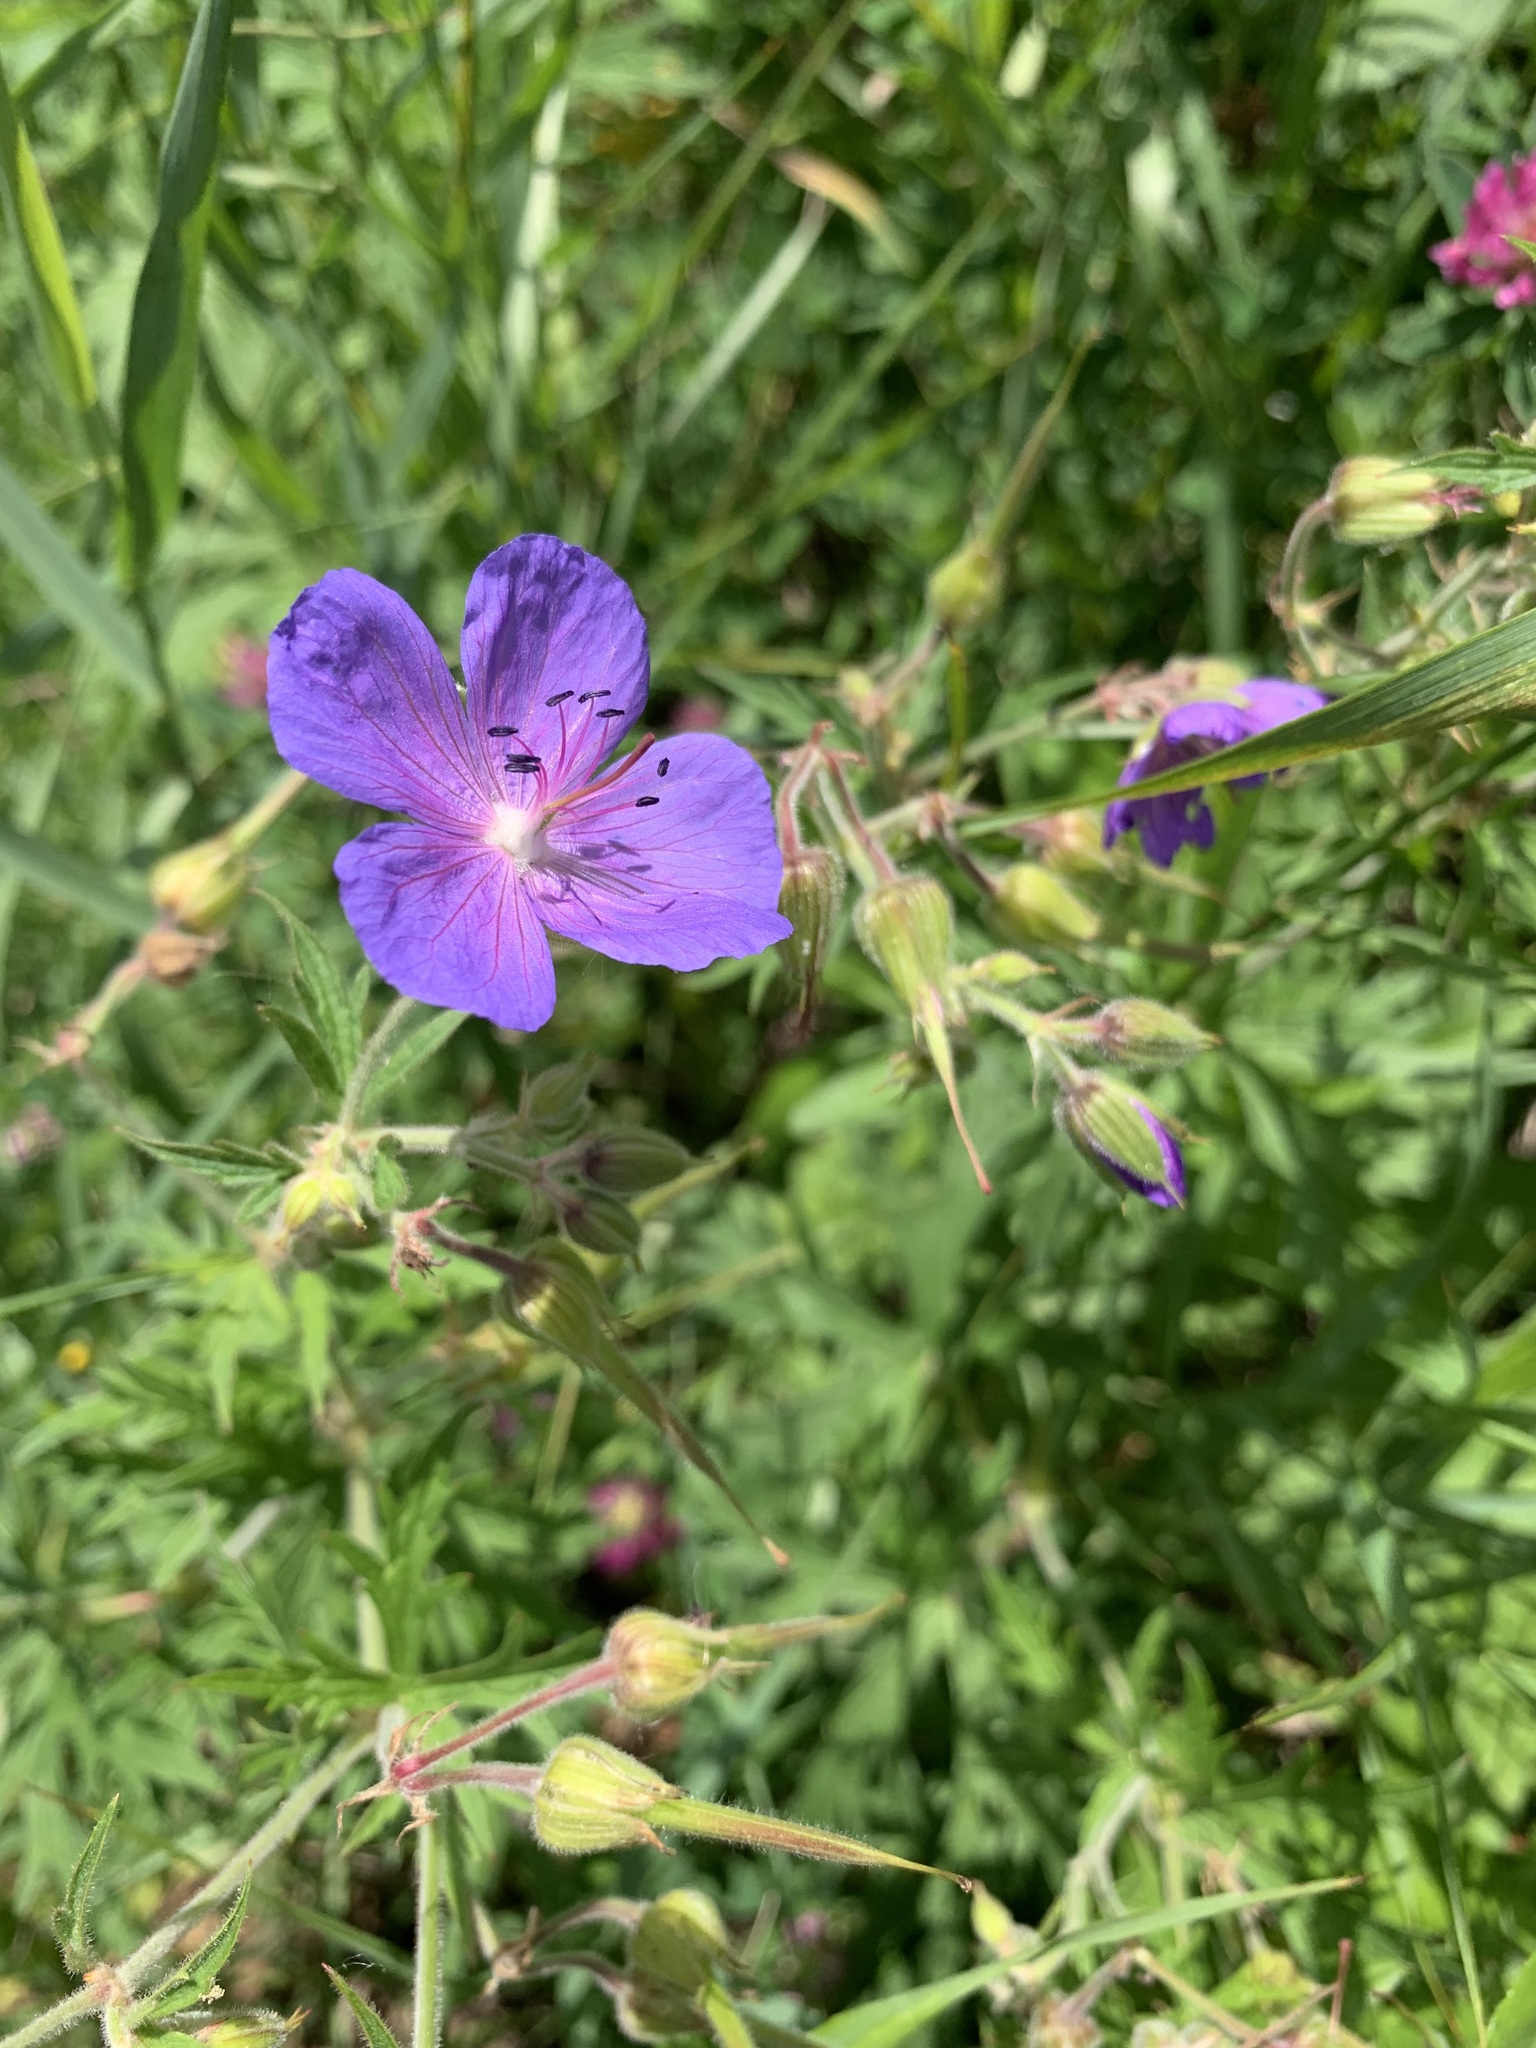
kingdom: Plantae
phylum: Tracheophyta
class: Magnoliopsida
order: Geraniales
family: Geraniaceae
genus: Geranium
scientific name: Geranium pratense
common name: Meadow crane's-bill
